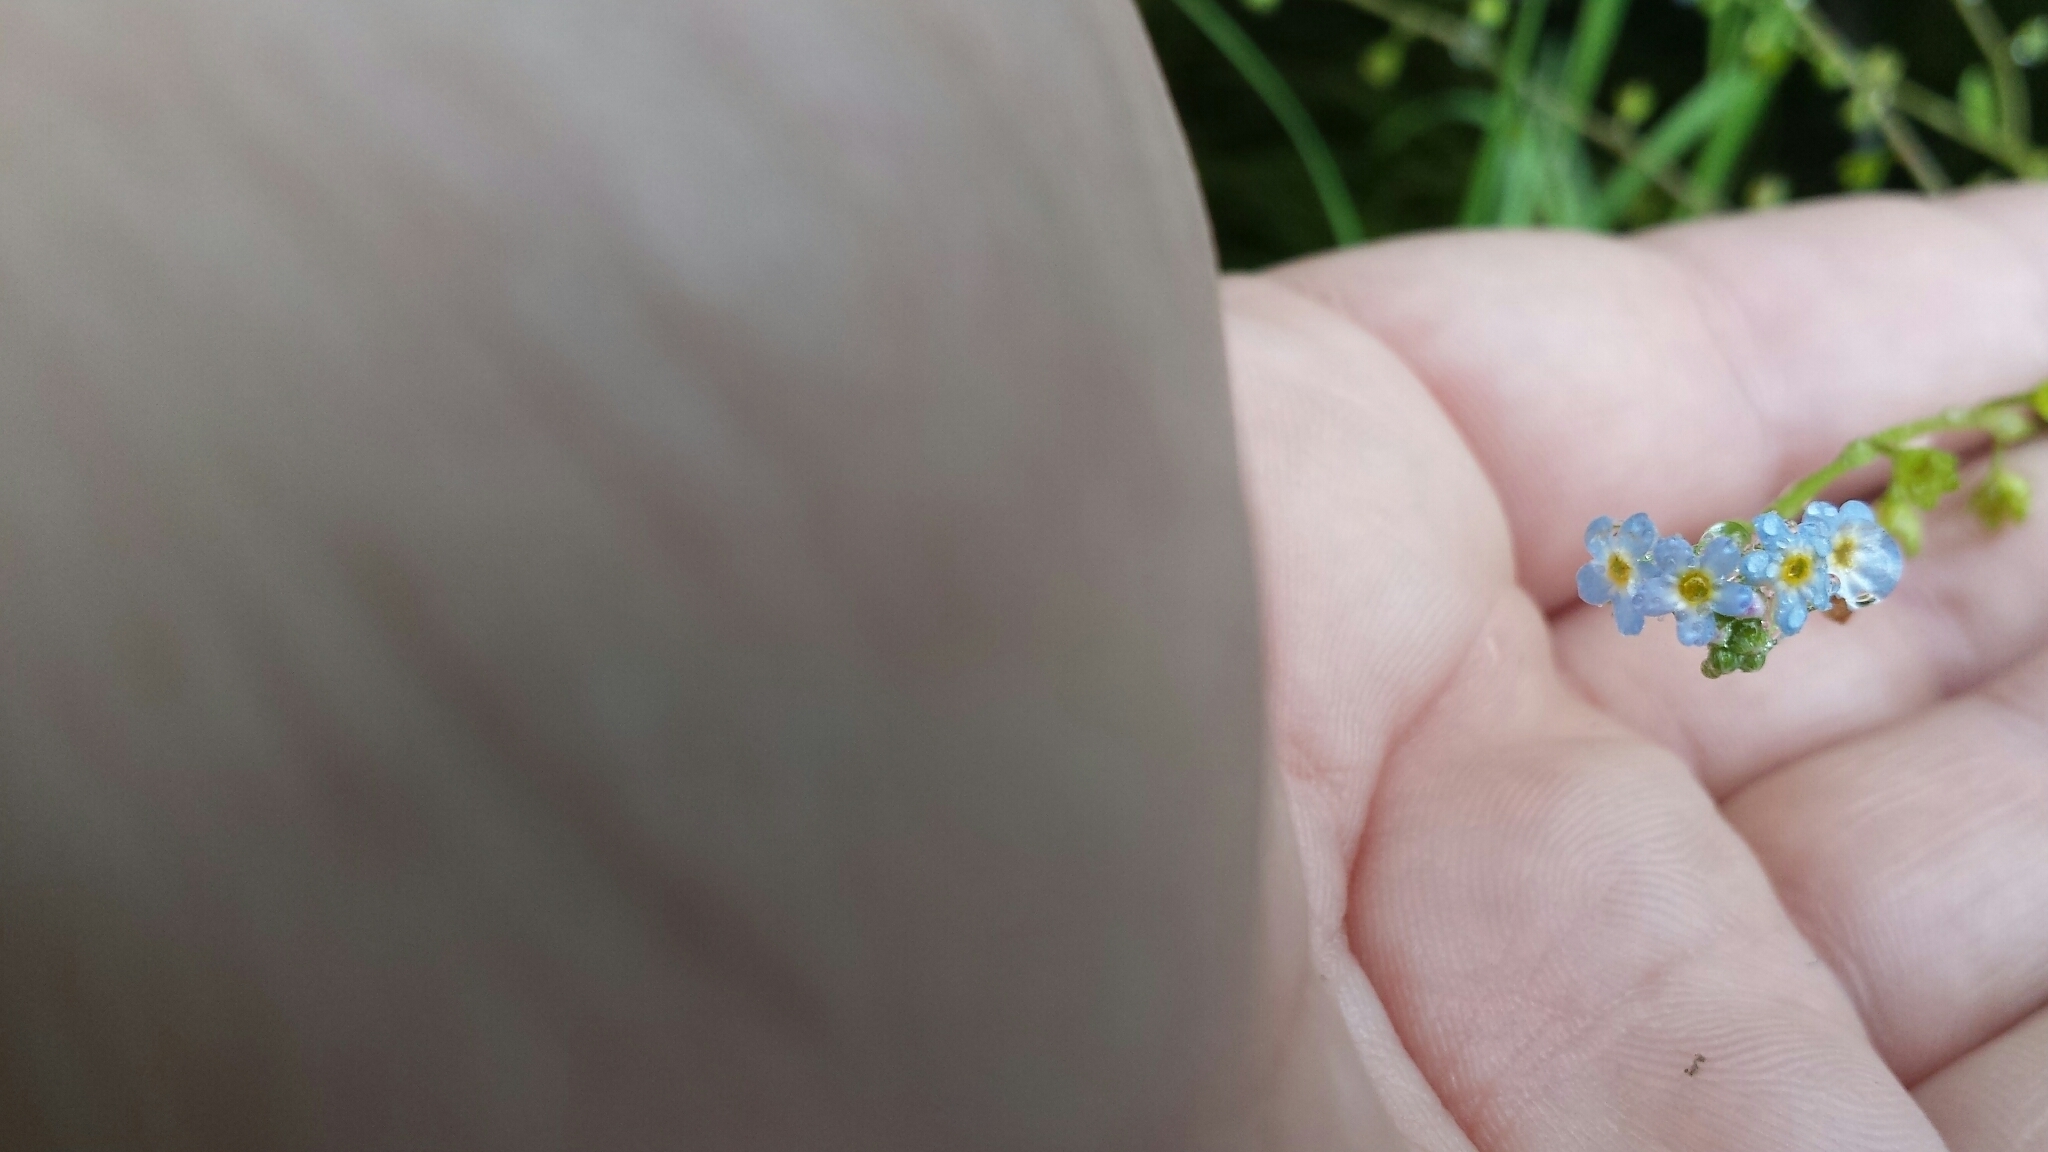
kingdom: Plantae
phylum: Tracheophyta
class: Magnoliopsida
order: Boraginales
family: Boraginaceae
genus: Myosotis
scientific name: Myosotis scorpioides
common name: Water forget-me-not
